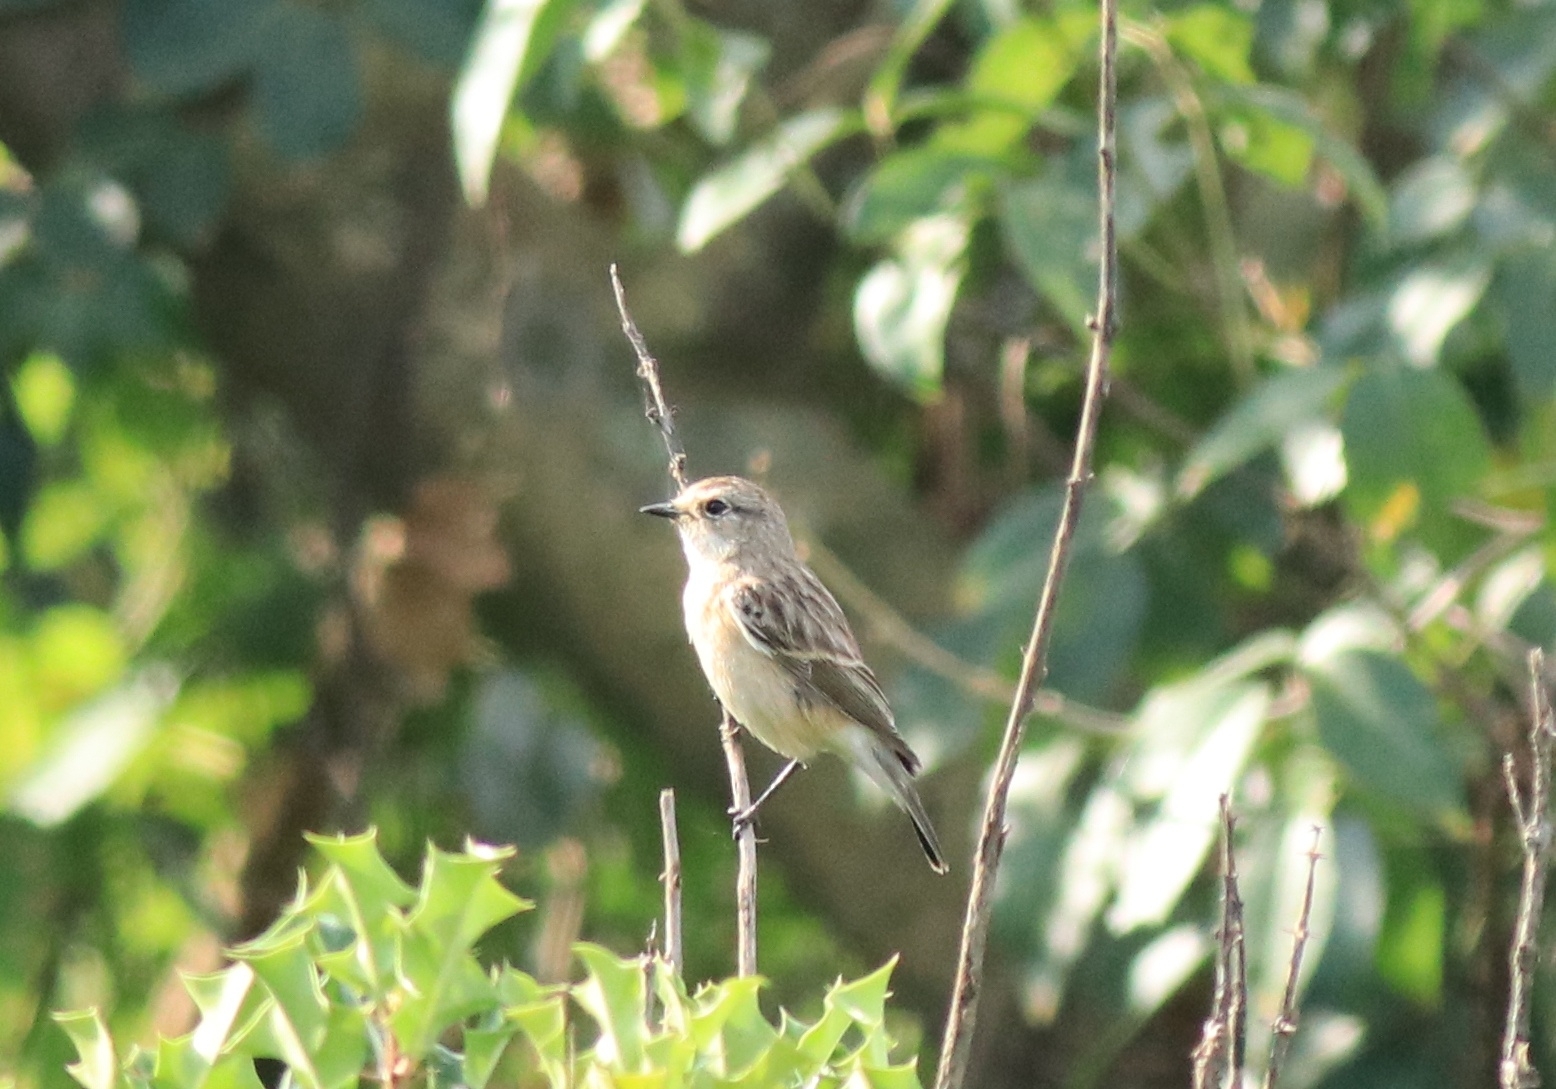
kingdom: Animalia
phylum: Chordata
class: Aves
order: Passeriformes
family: Muscicapidae
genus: Saxicola
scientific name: Saxicola maurus
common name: Siberian stonechat
